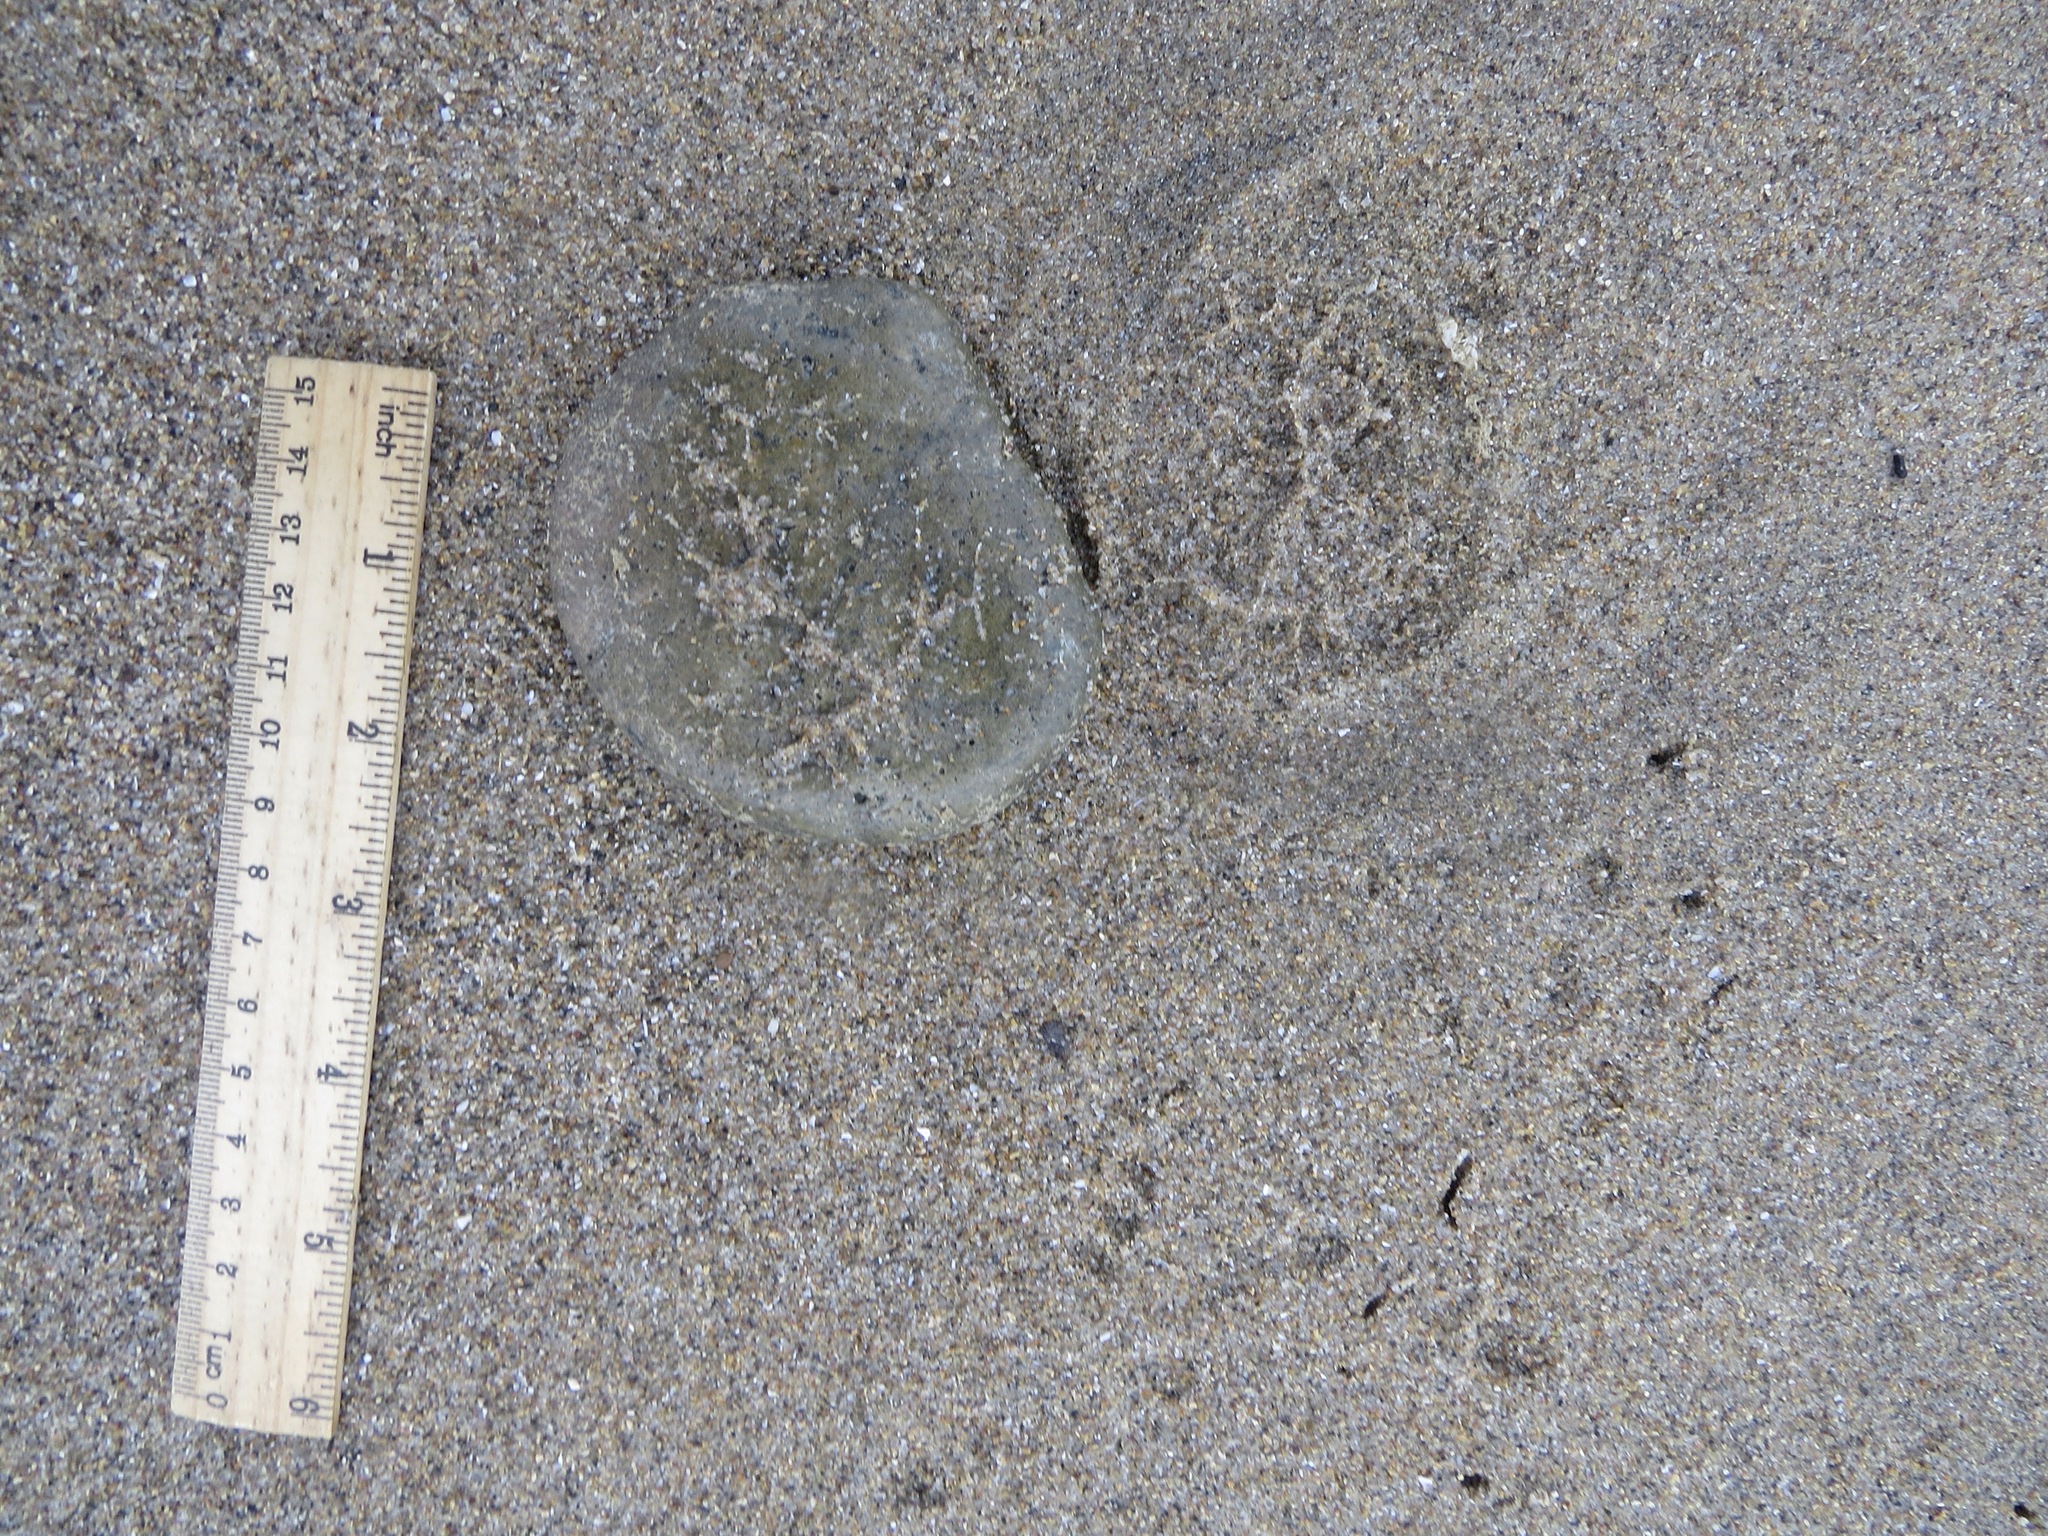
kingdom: Animalia
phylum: Chordata
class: Aves
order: Passeriformes
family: Corvidae
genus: Corvus
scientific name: Corvus corax
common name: Common raven
